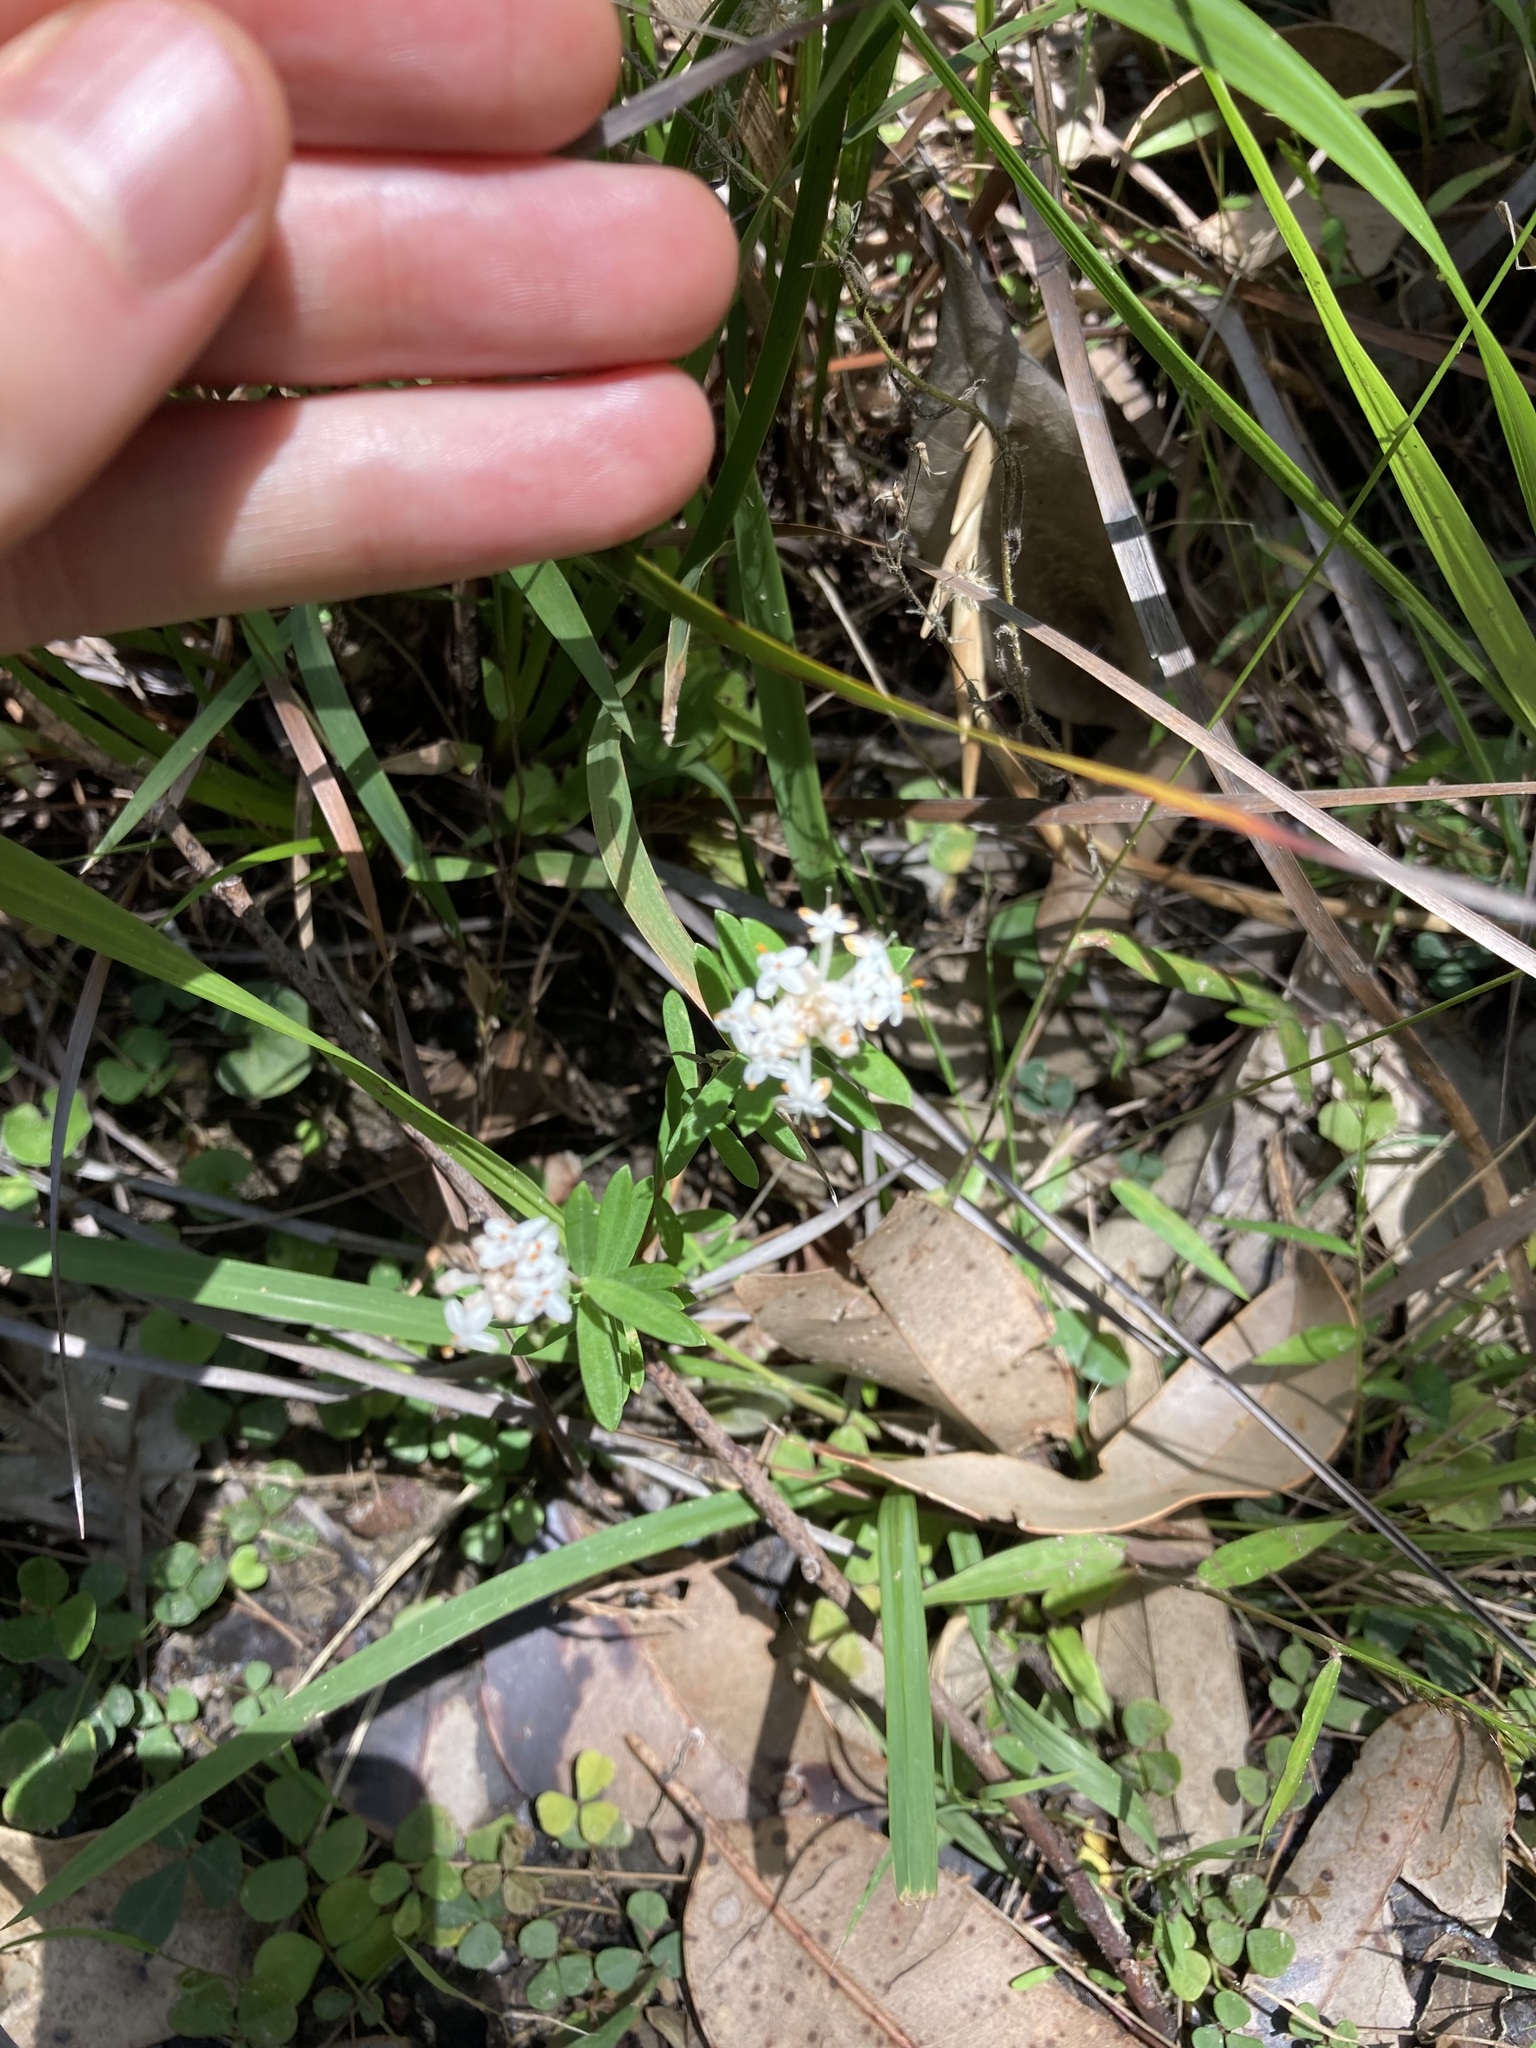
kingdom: Plantae
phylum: Tracheophyta
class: Magnoliopsida
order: Malvales
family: Thymelaeaceae
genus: Pimelea
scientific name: Pimelea linifolia
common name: Queen-of-the-bush
